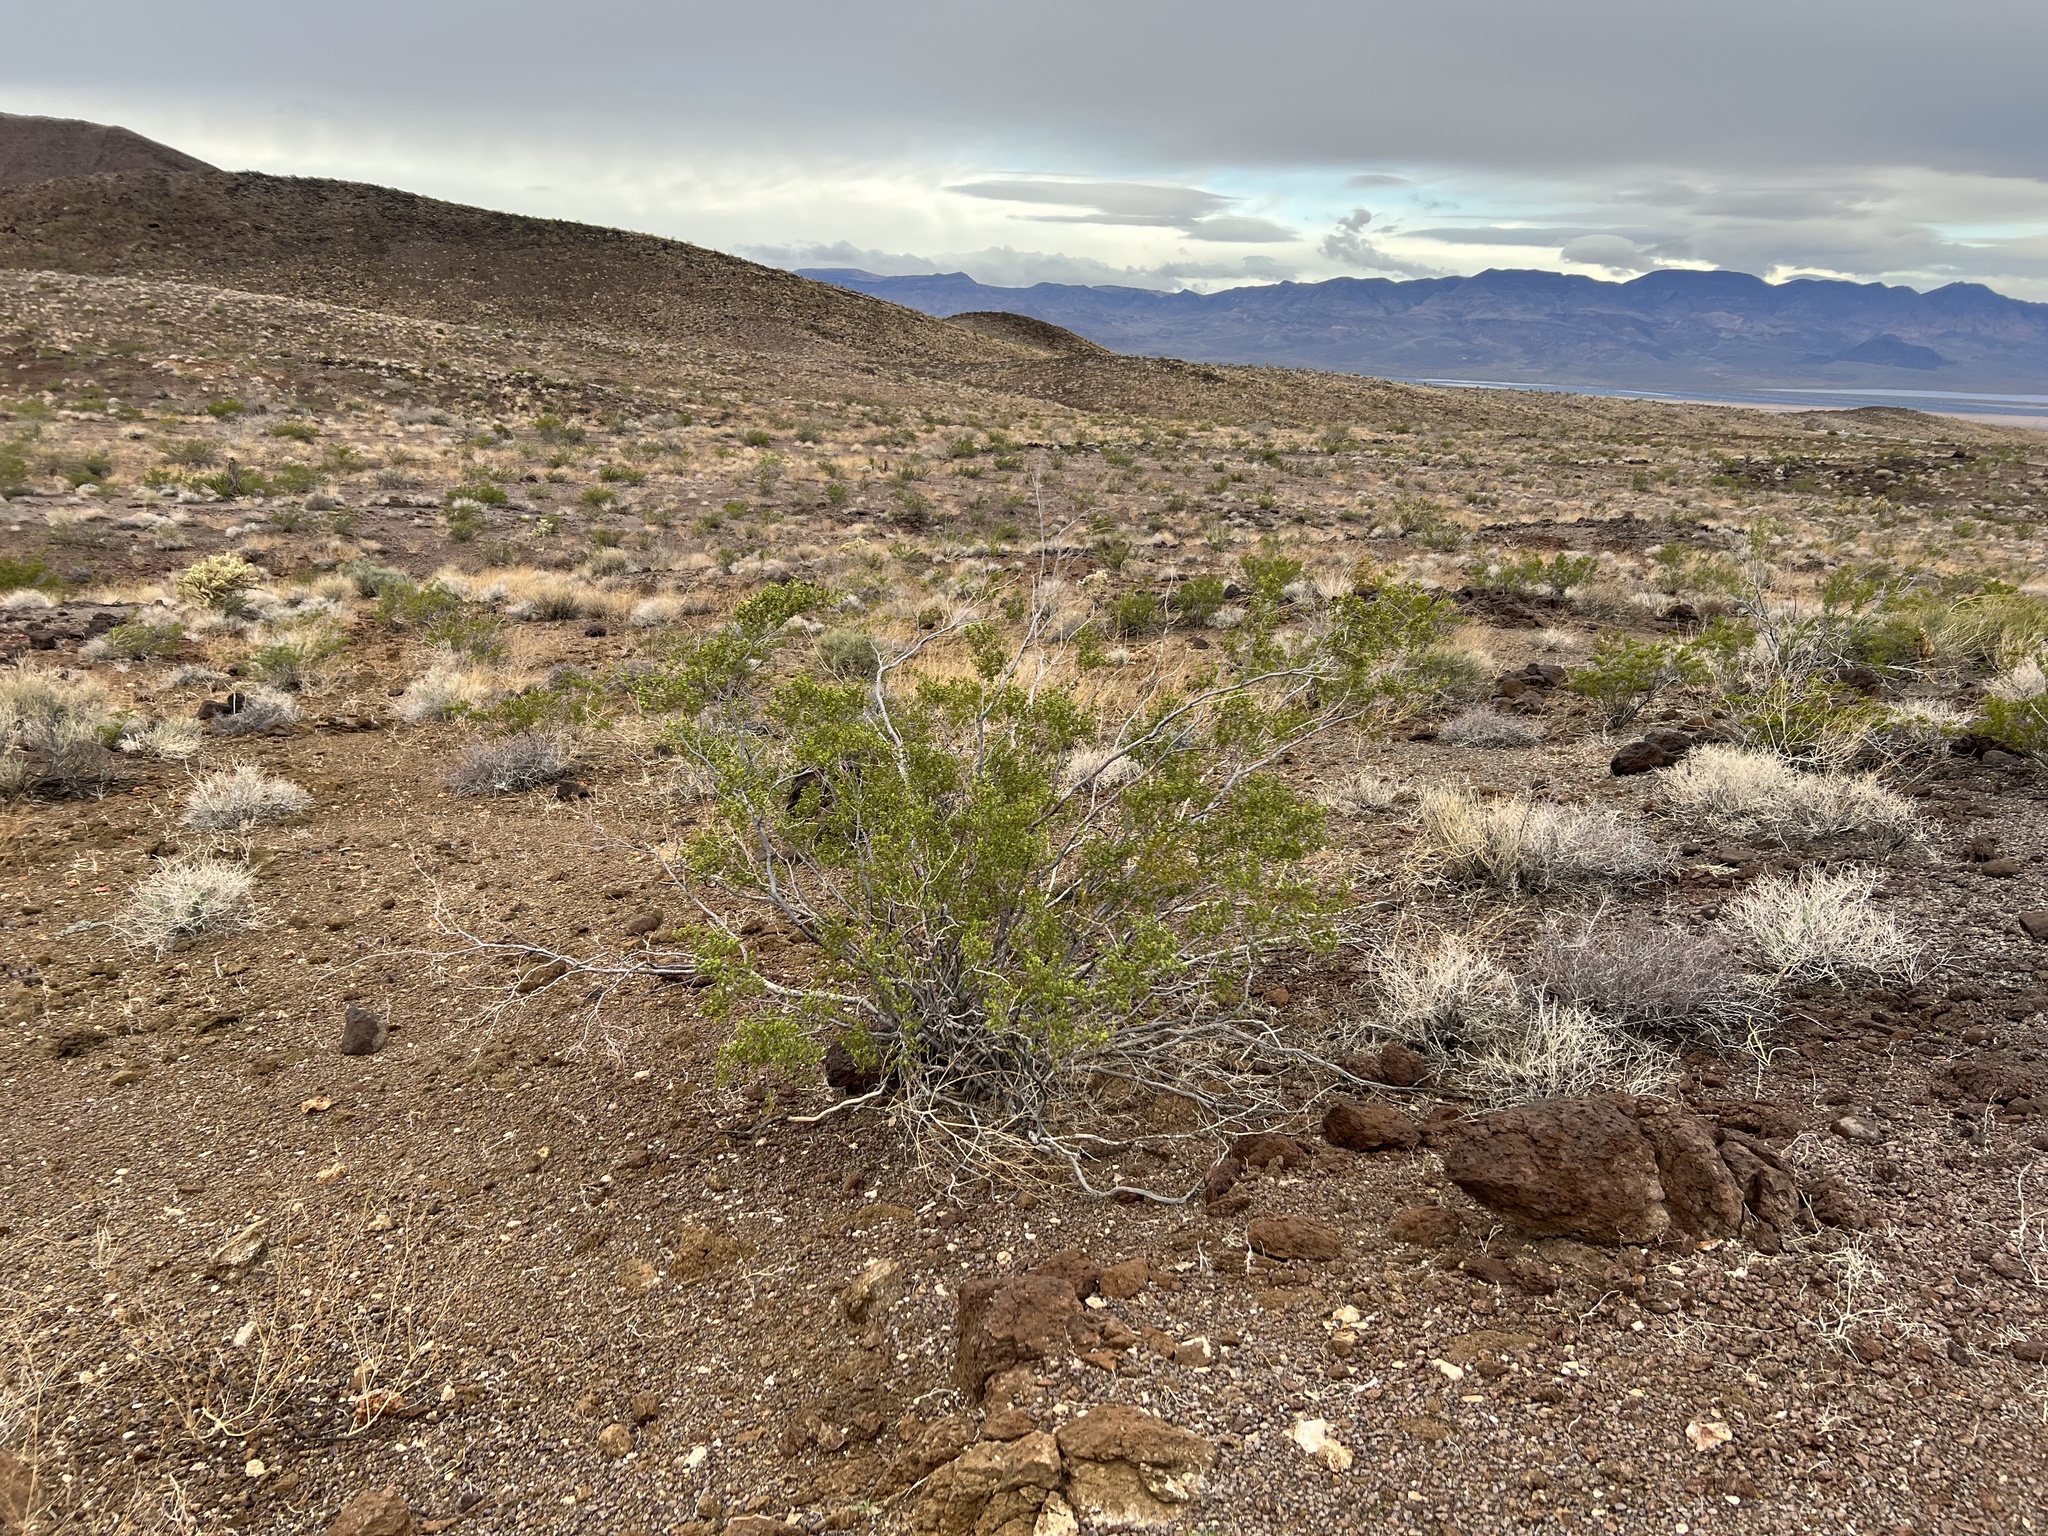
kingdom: Plantae
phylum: Tracheophyta
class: Magnoliopsida
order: Zygophyllales
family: Zygophyllaceae
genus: Larrea
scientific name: Larrea tridentata
